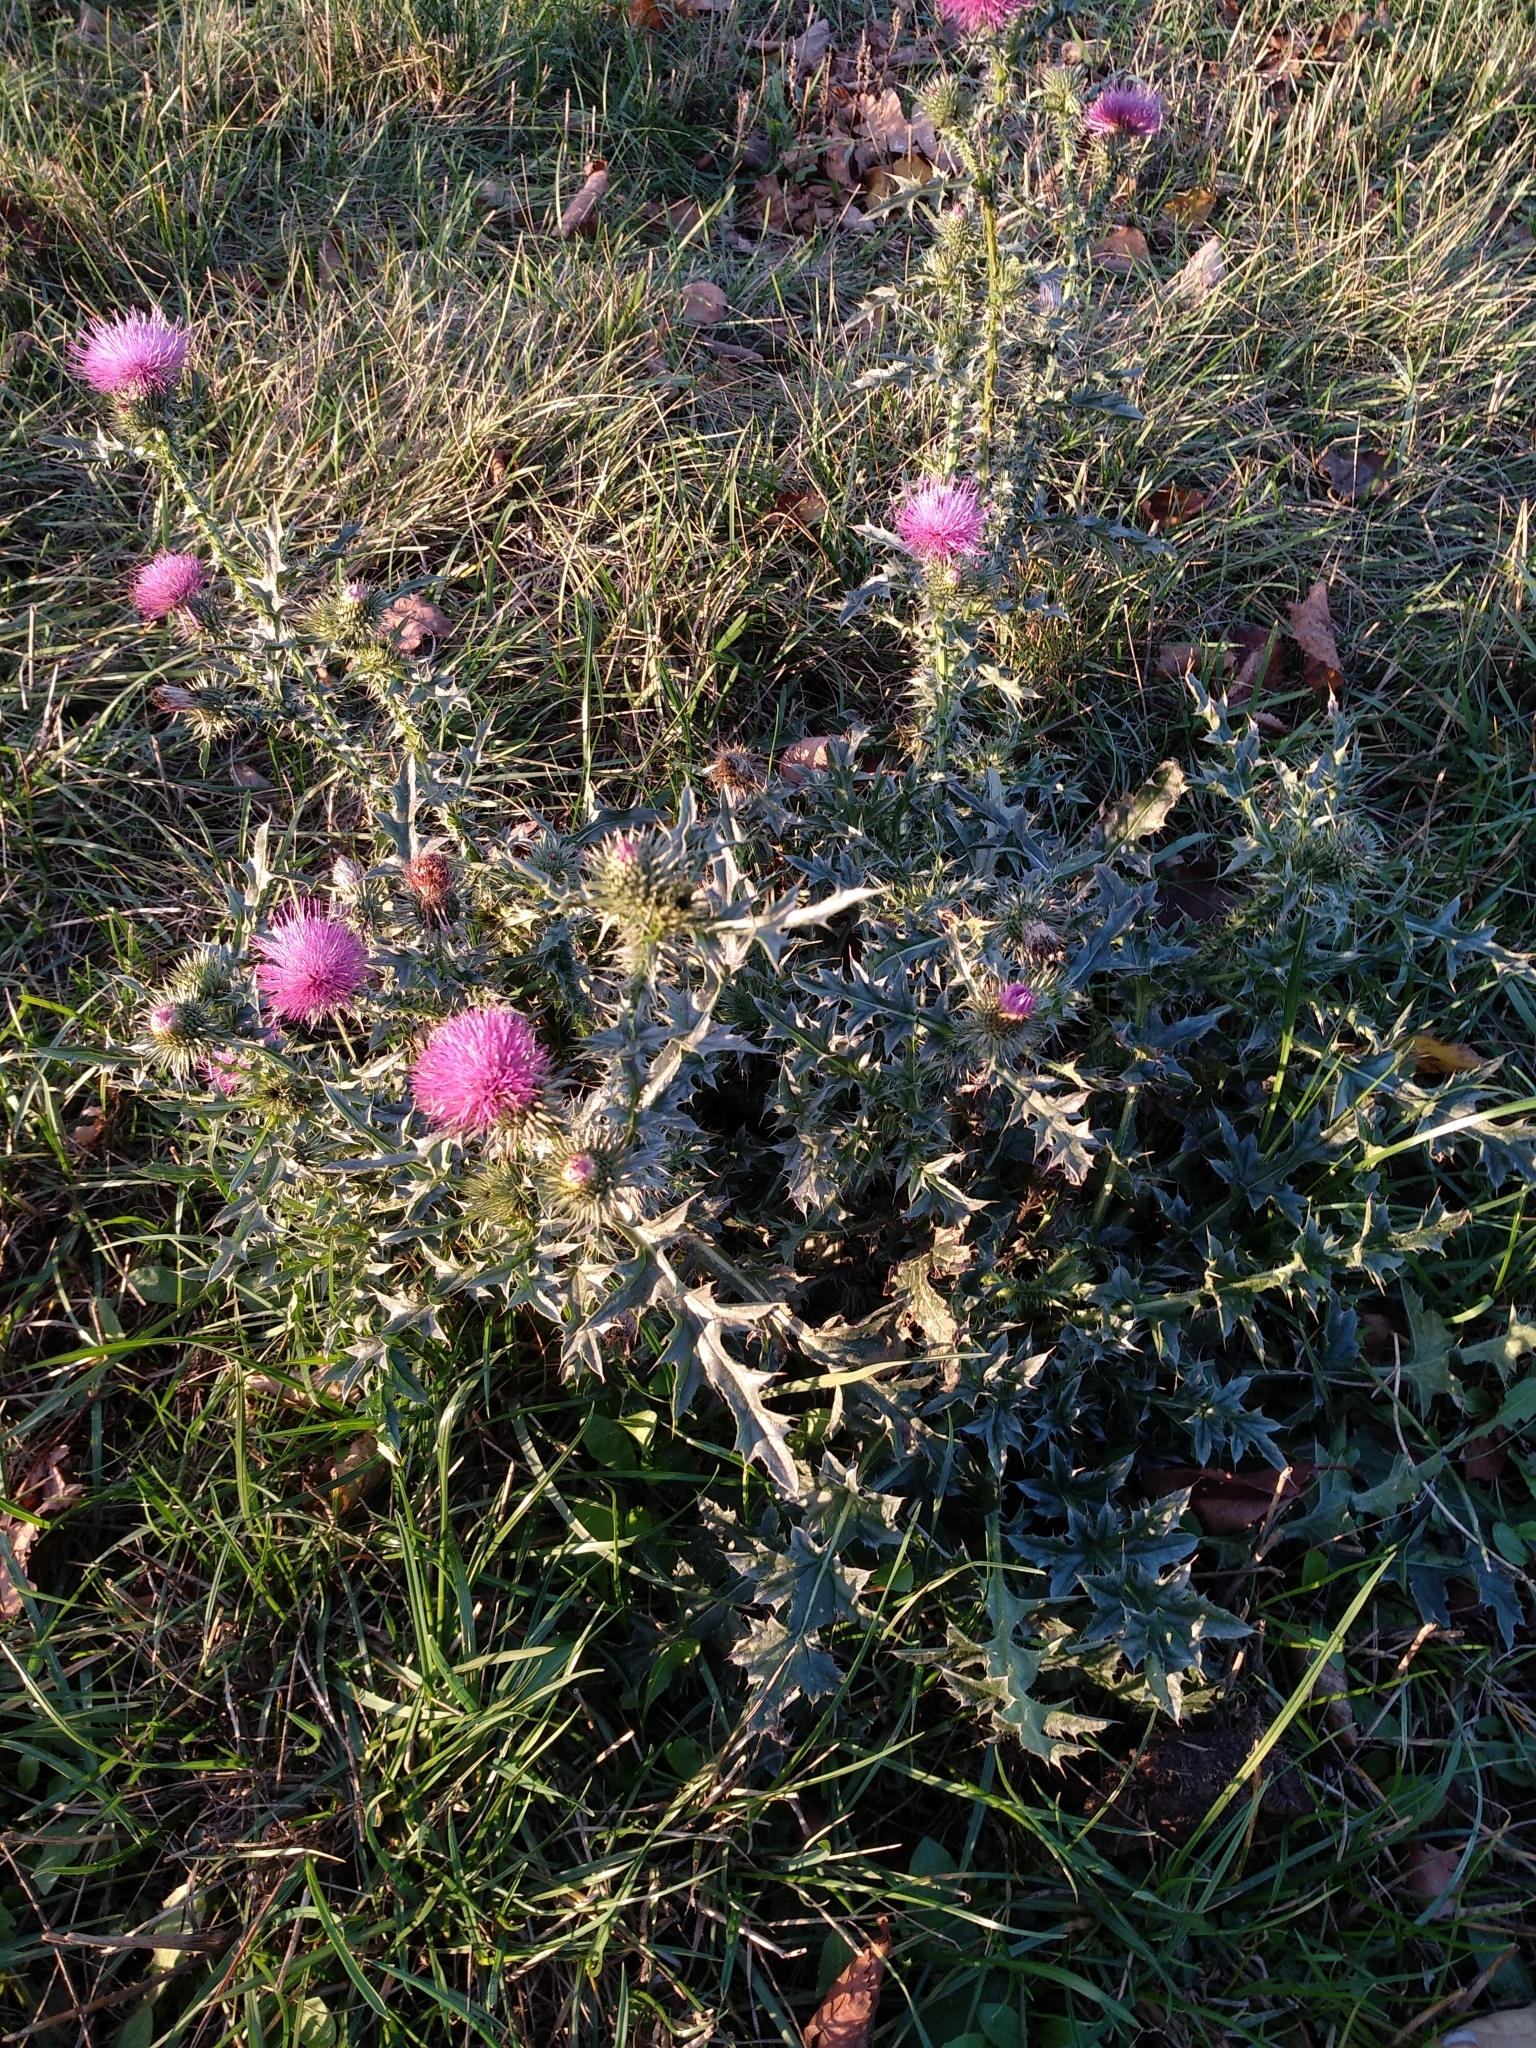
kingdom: Plantae
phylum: Tracheophyta
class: Magnoliopsida
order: Asterales
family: Asteraceae
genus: Carduus
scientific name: Carduus acanthoides
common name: Plumeless thistle
